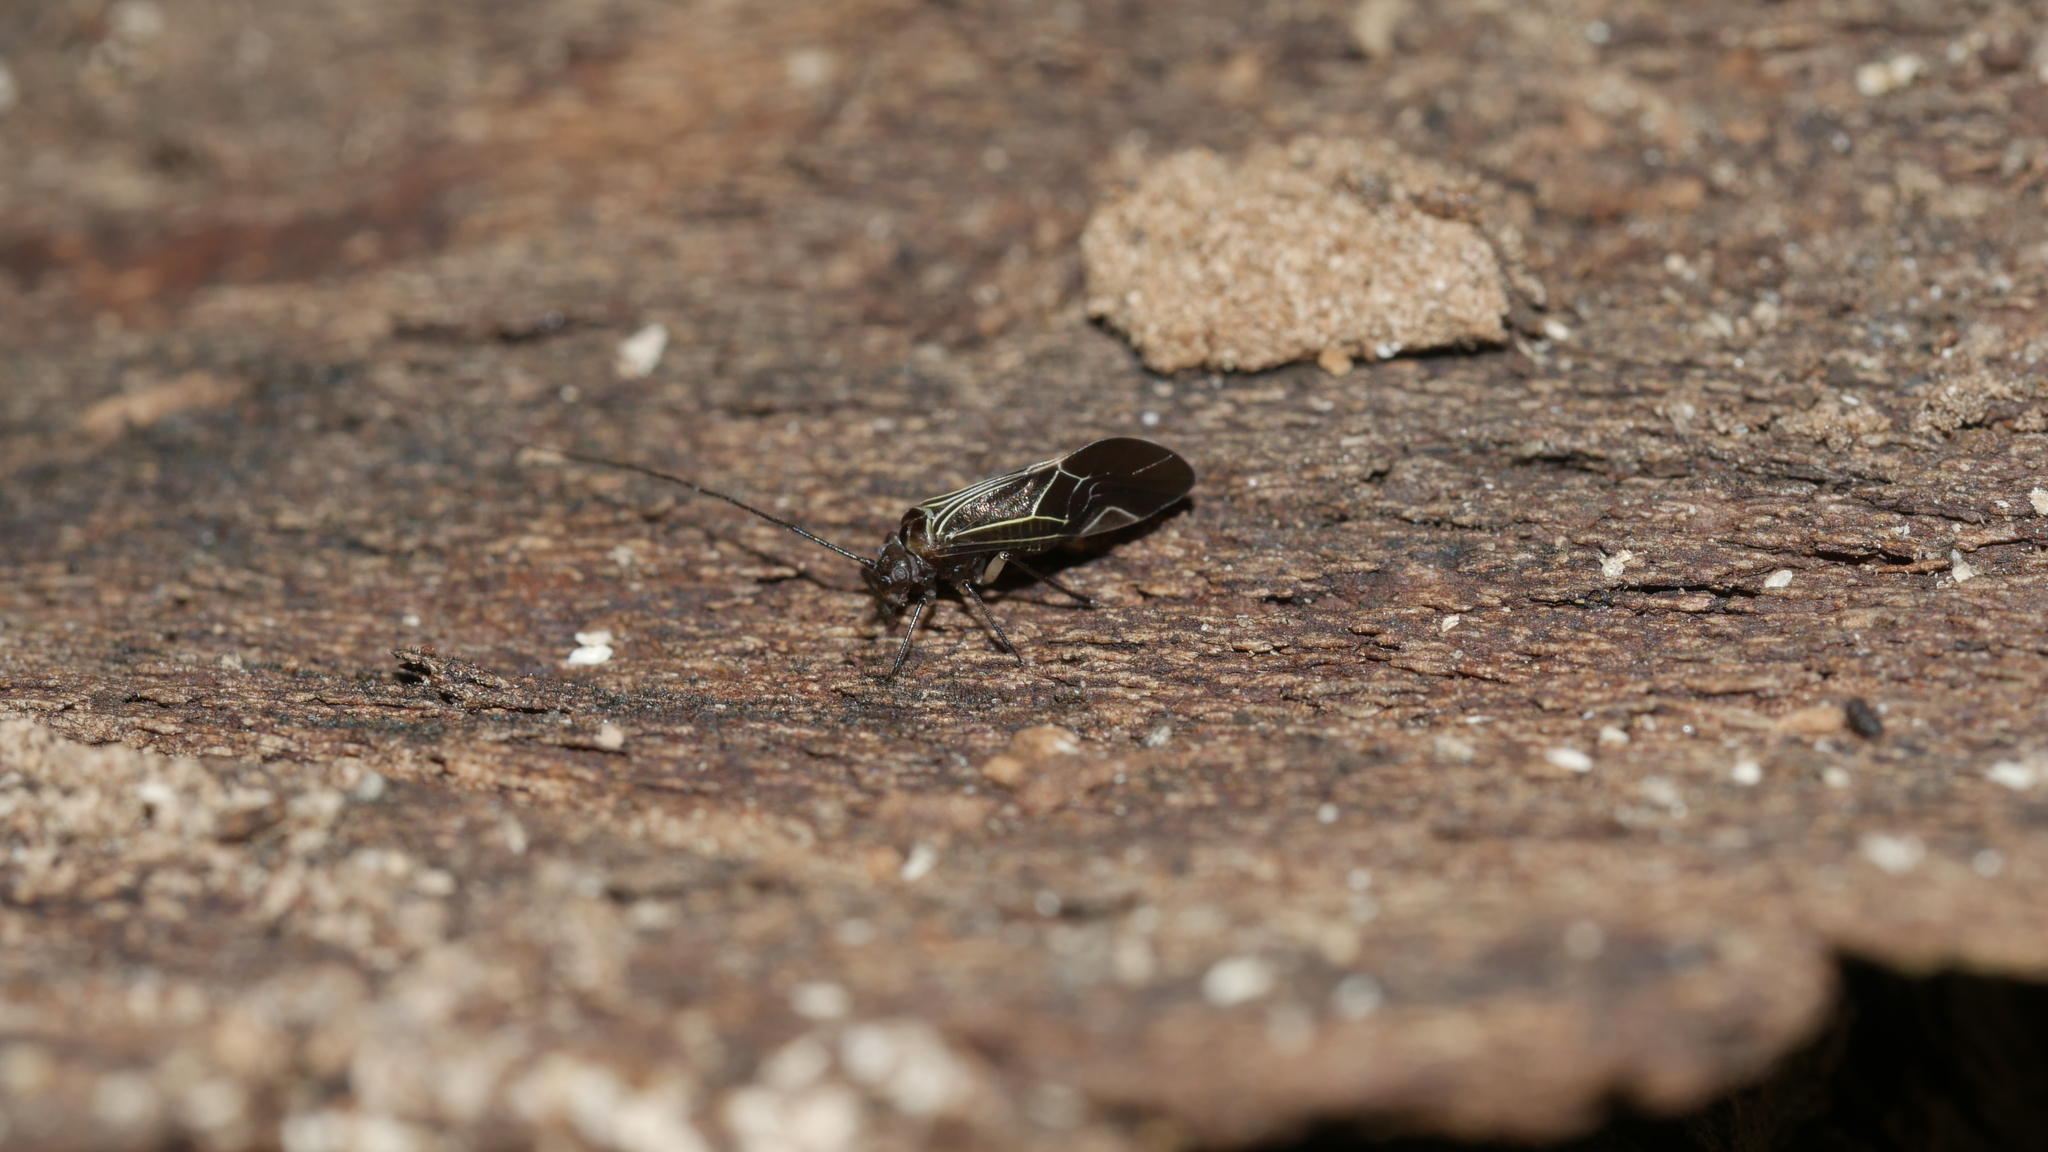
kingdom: Animalia
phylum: Arthropoda
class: Insecta
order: Psocodea
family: Psocidae
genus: Cerastipsocus
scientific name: Cerastipsocus venosus
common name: Tree cattle
